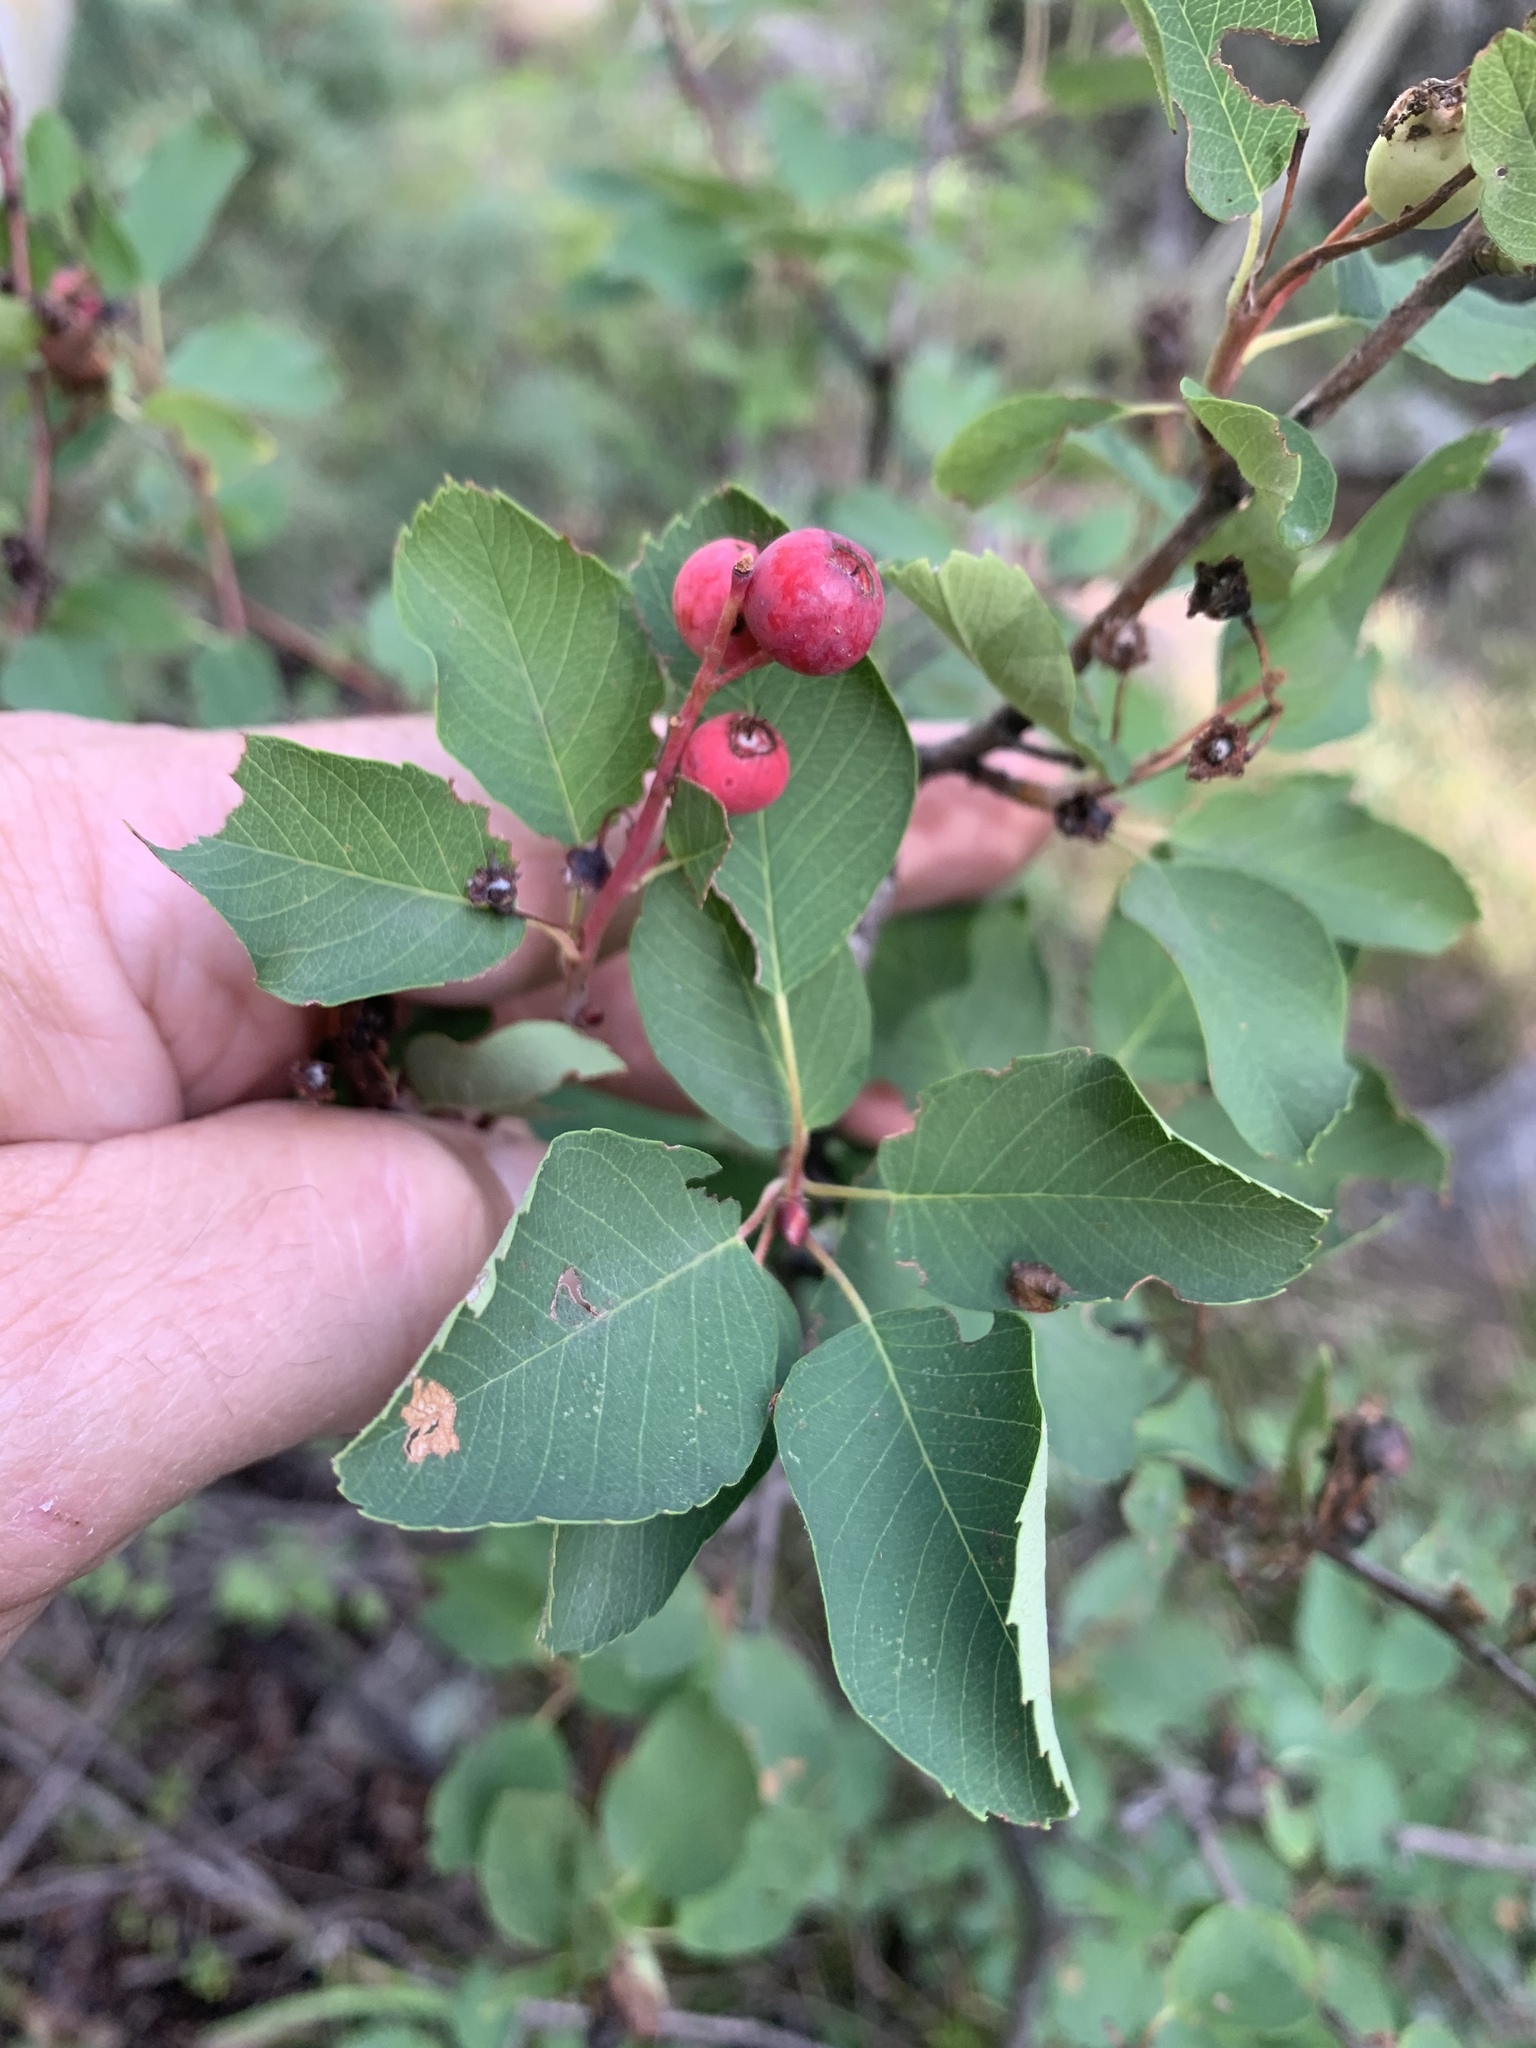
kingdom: Plantae
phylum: Tracheophyta
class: Magnoliopsida
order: Rosales
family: Rosaceae
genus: Amelanchier
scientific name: Amelanchier alnifolia
